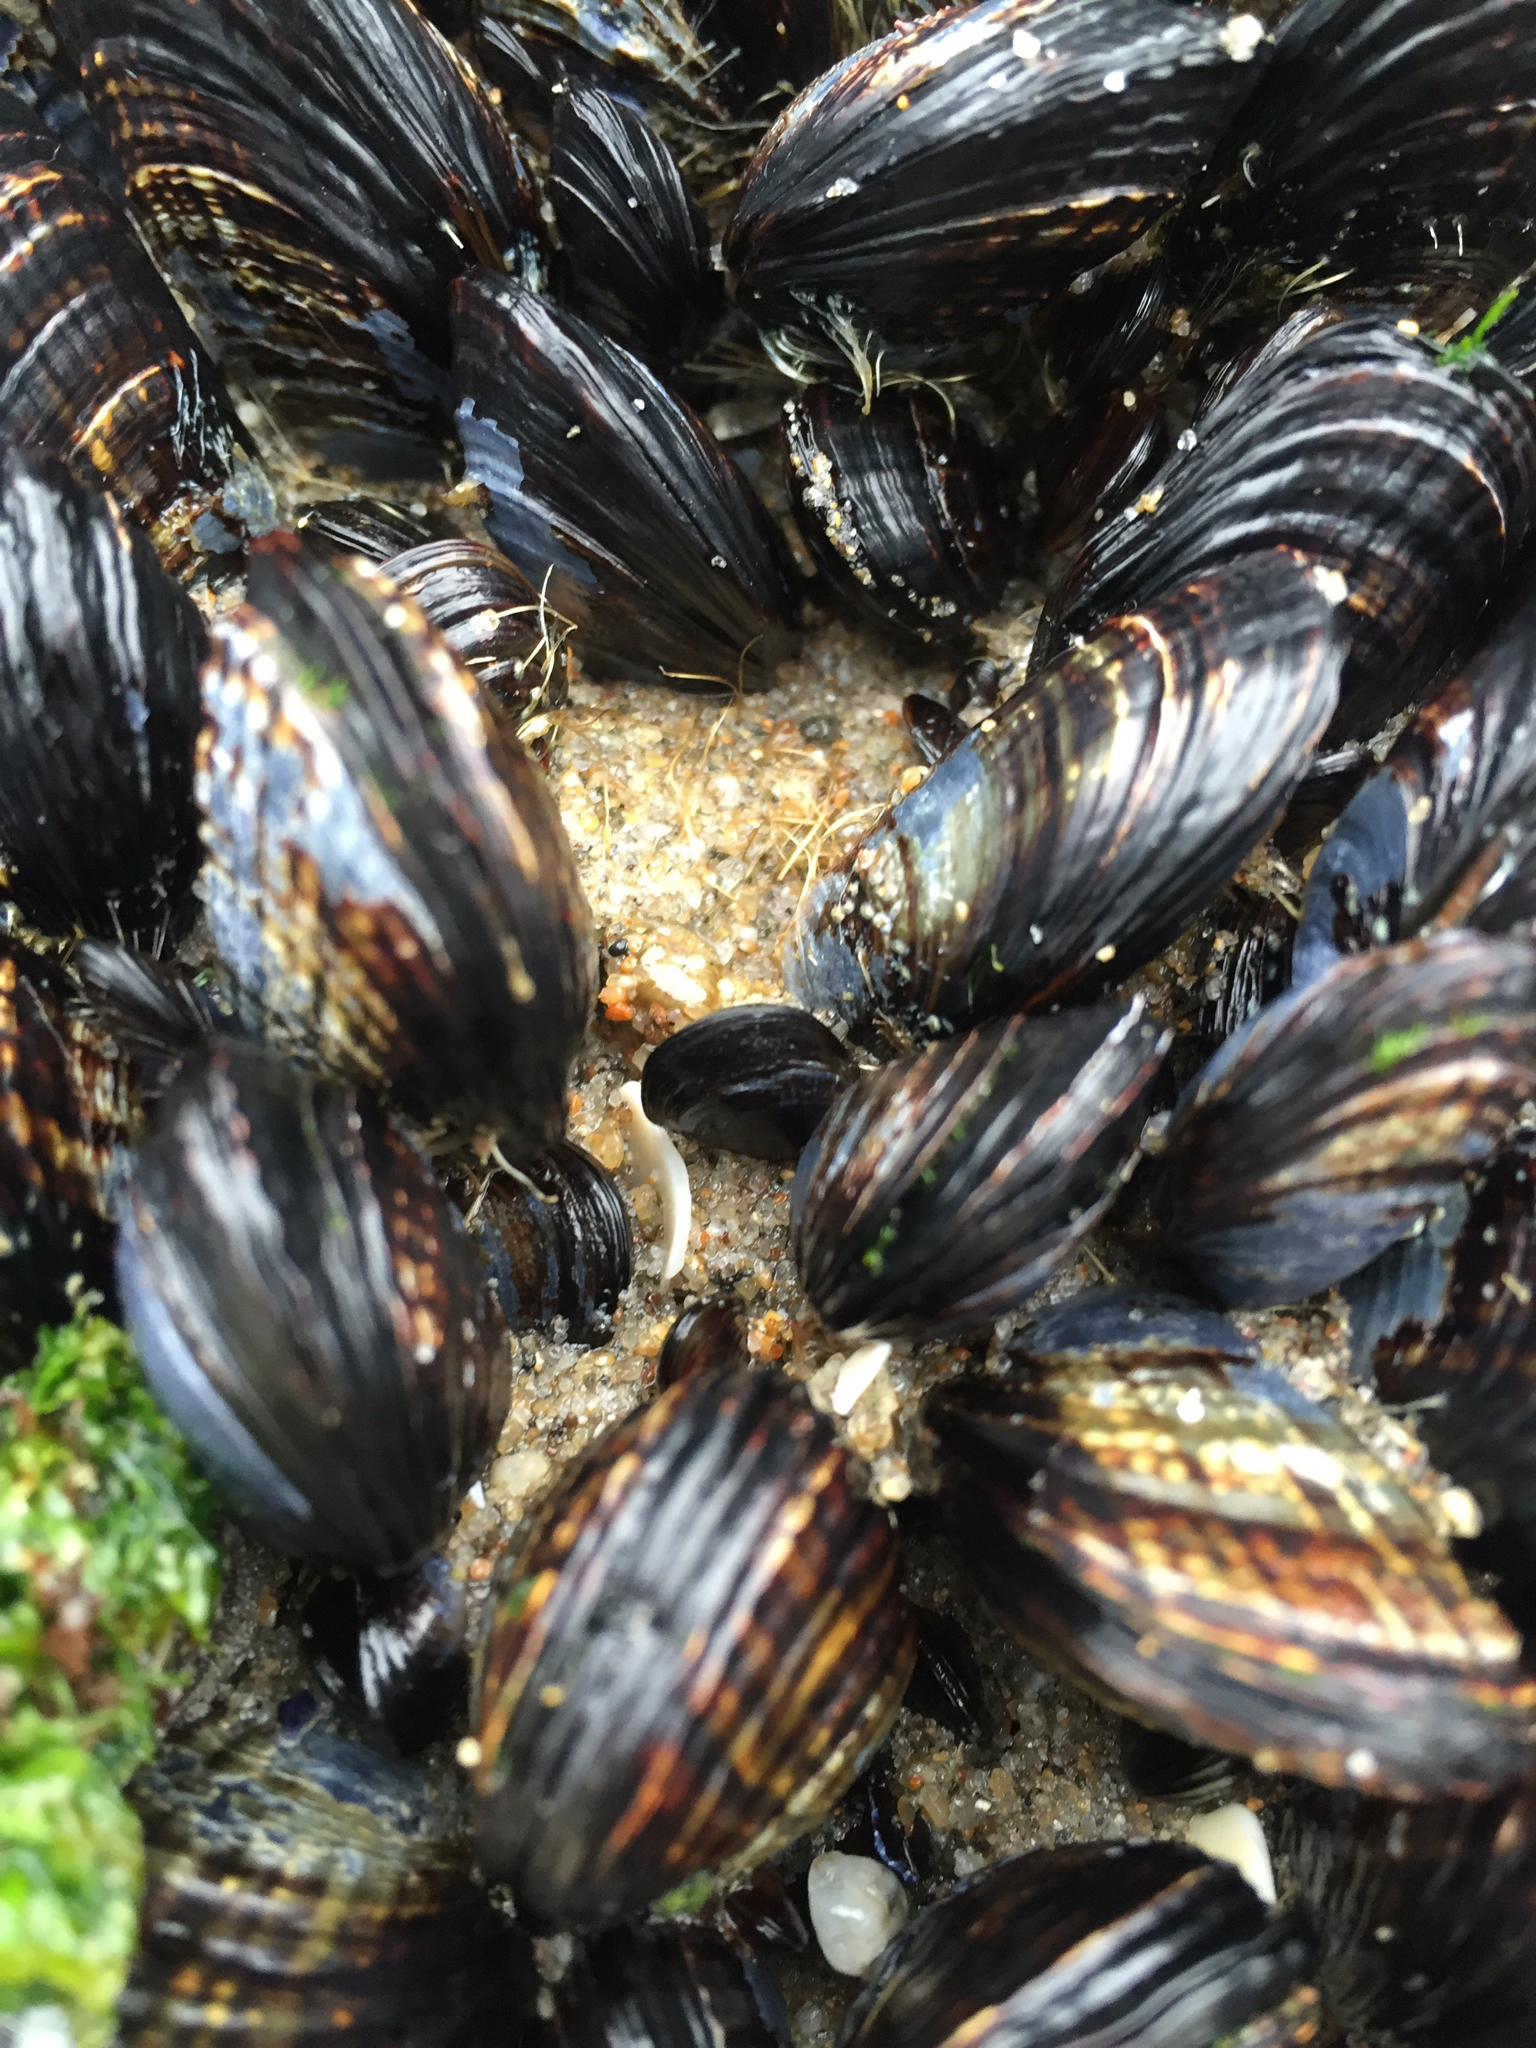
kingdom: Animalia
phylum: Mollusca
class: Bivalvia
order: Mytilida
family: Mytilidae
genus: Mytilus
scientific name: Mytilus californianus
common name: California mussel
